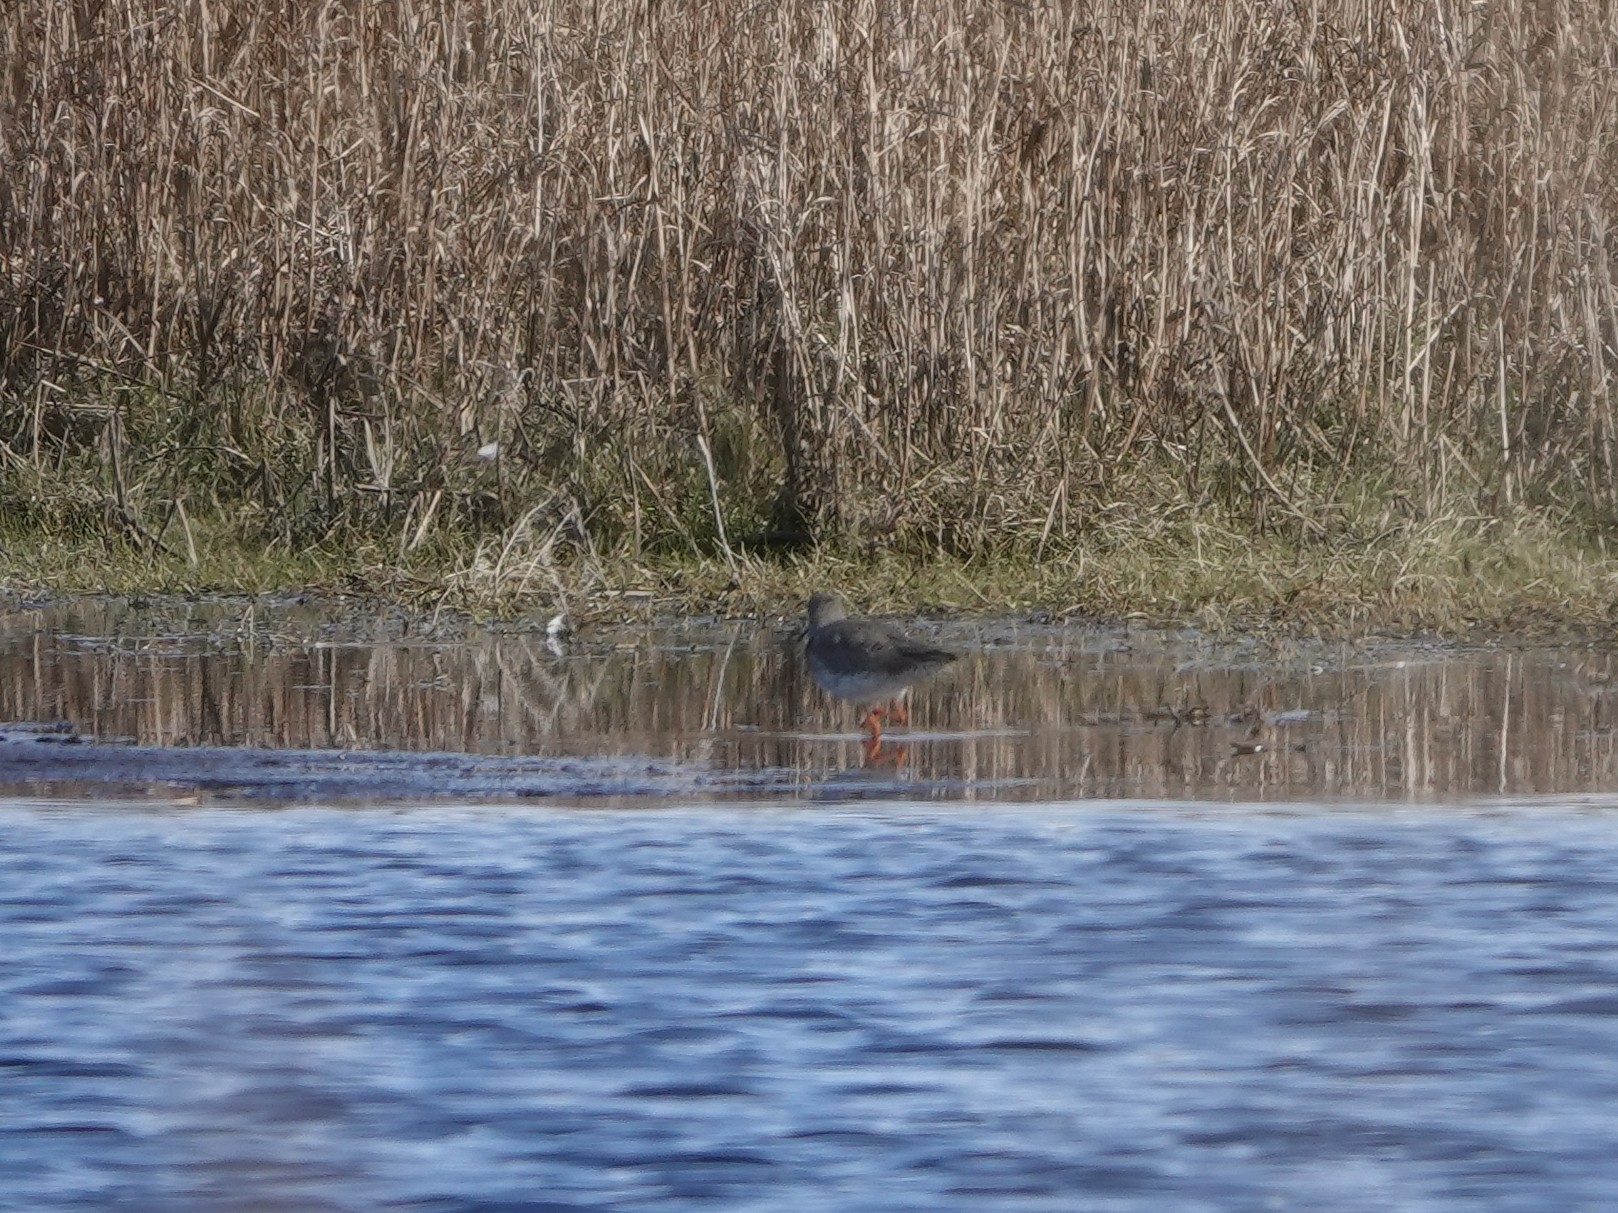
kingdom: Animalia
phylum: Chordata
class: Aves
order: Charadriiformes
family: Scolopacidae
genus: Tringa
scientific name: Tringa totanus
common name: Common redshank
